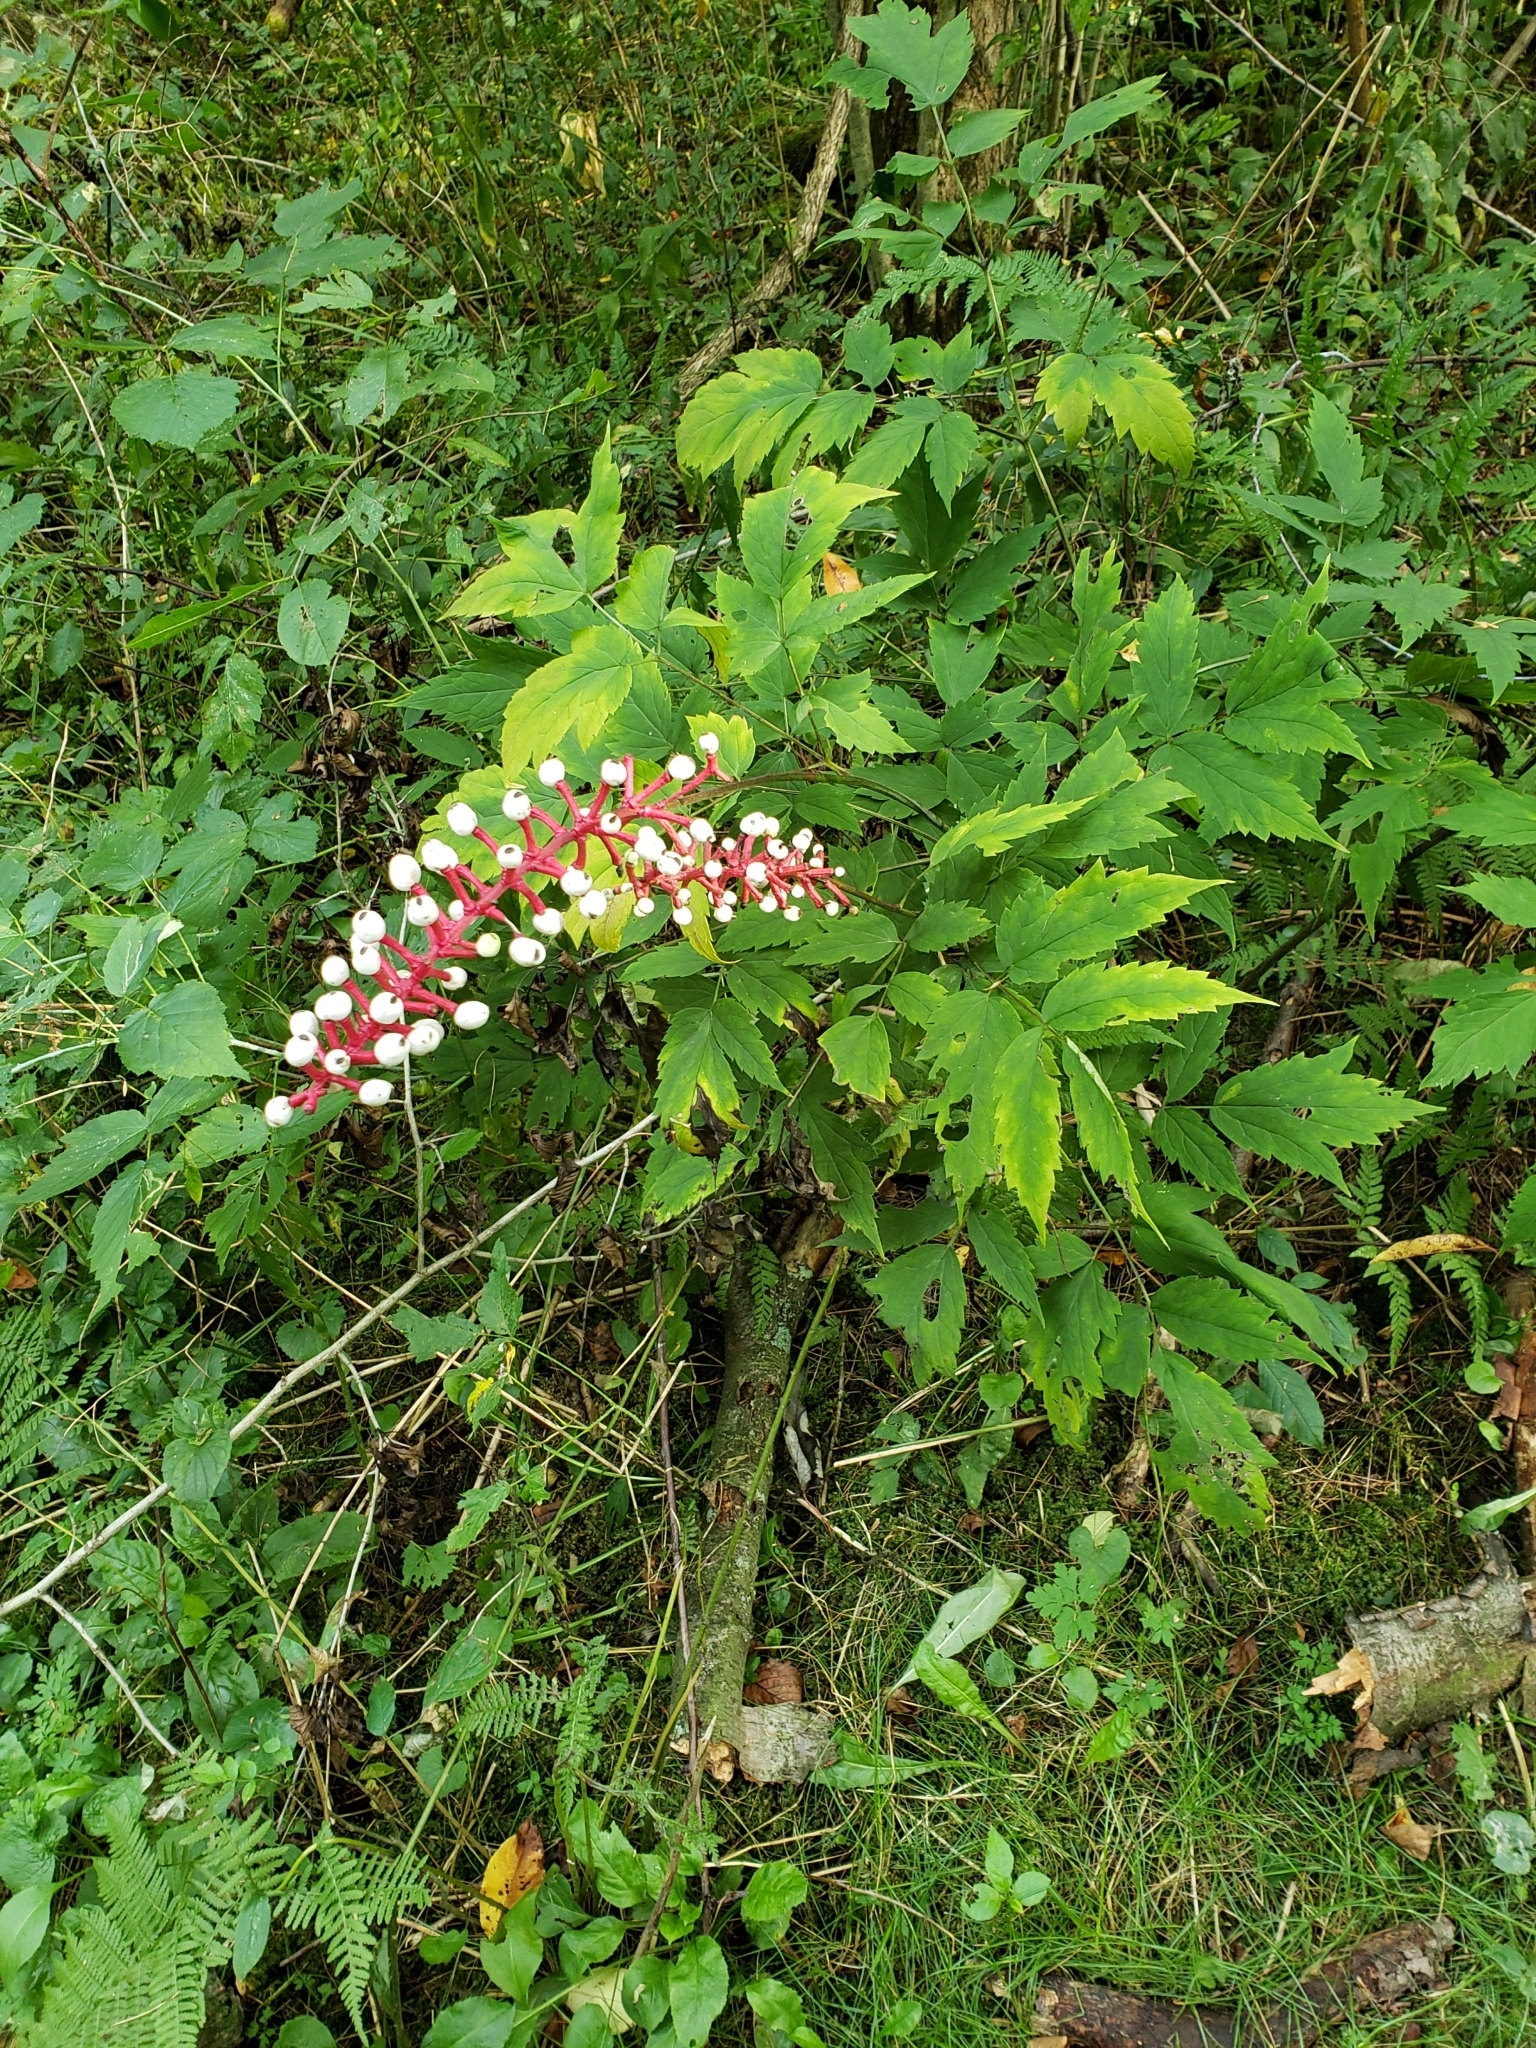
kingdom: Plantae
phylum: Tracheophyta
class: Magnoliopsida
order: Ranunculales
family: Ranunculaceae
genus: Actaea
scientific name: Actaea pachypoda
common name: Doll's-eyes
